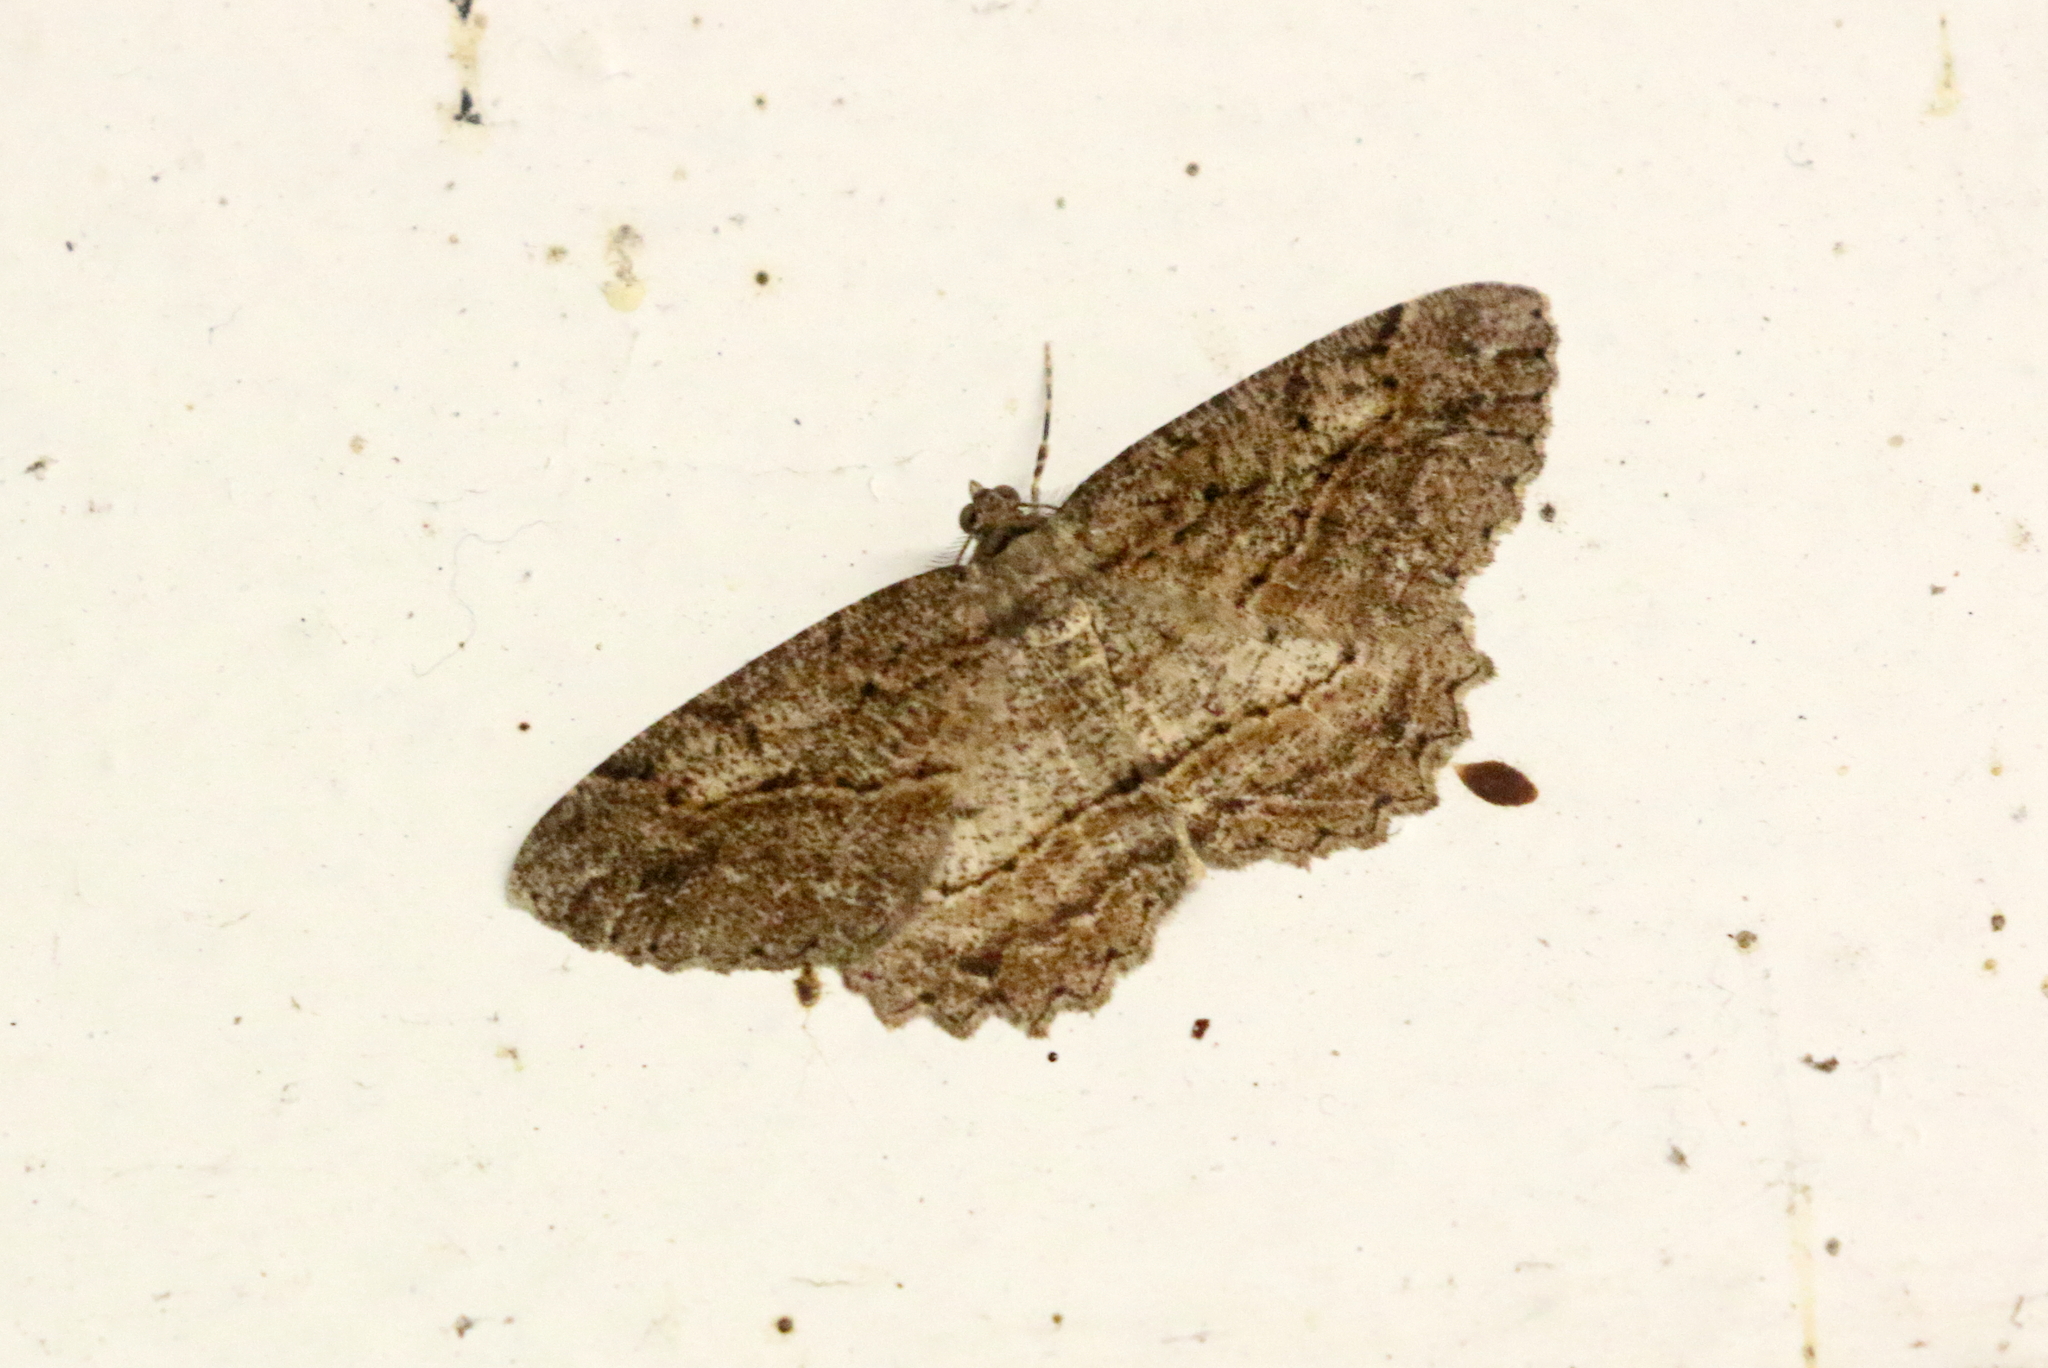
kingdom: Animalia
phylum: Arthropoda
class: Insecta
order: Lepidoptera
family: Geometridae
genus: Neoalcis
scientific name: Neoalcis californiaria
